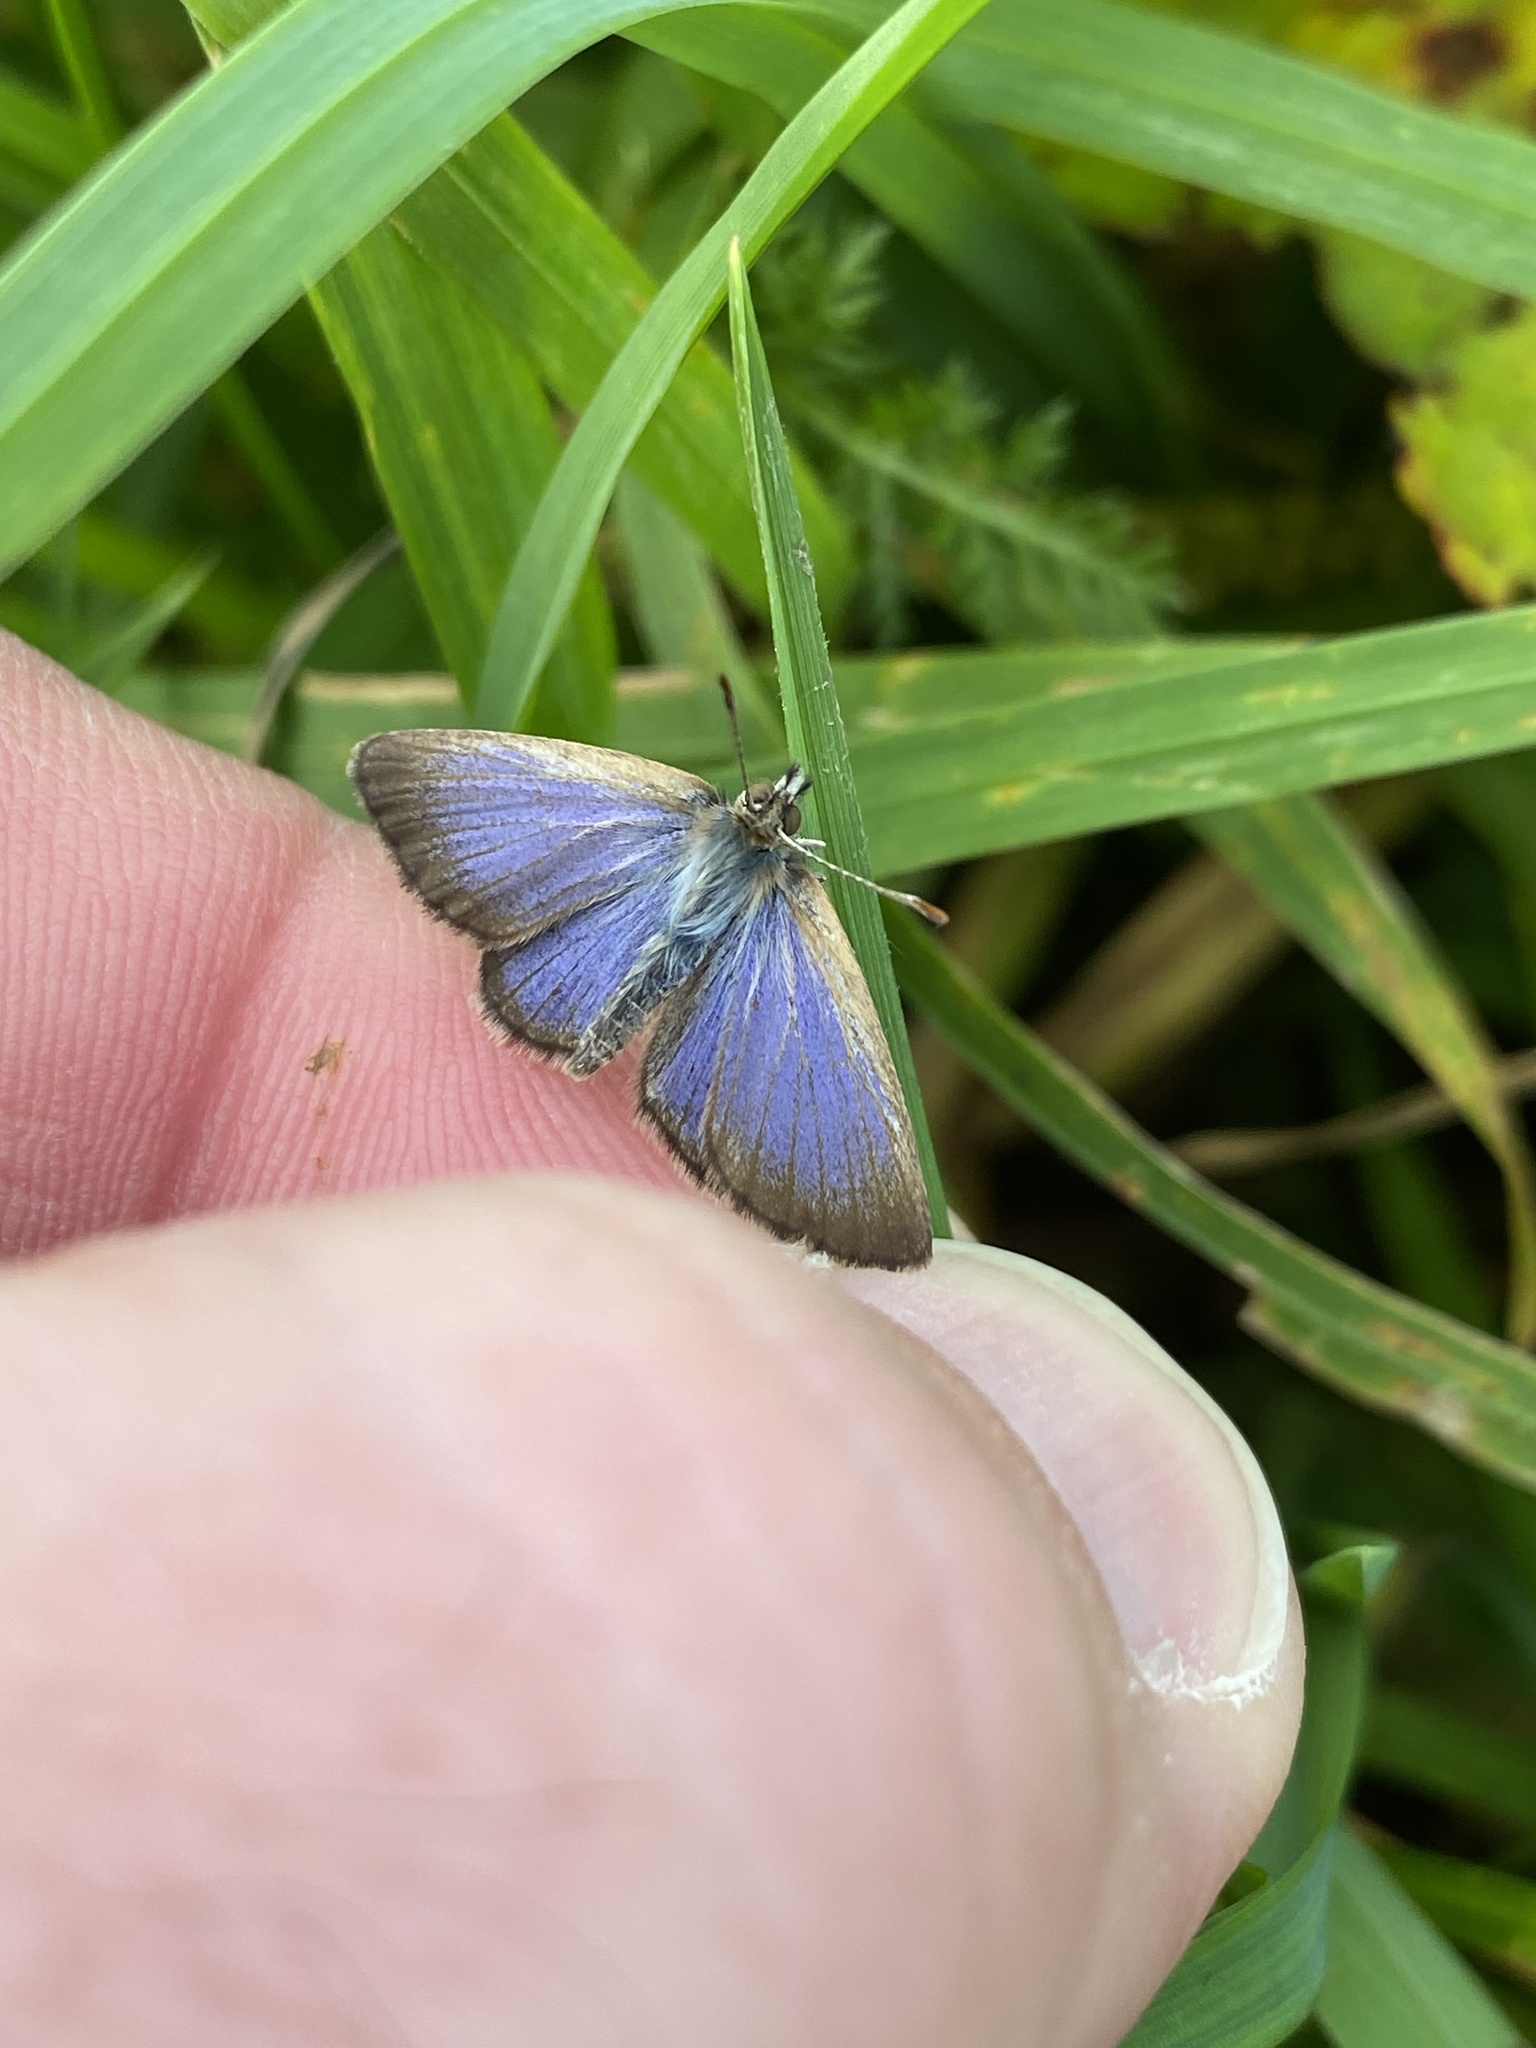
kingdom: Animalia
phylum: Arthropoda
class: Insecta
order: Lepidoptera
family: Lycaenidae
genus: Zizina
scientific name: Zizina oxleyi
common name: Southern blue
